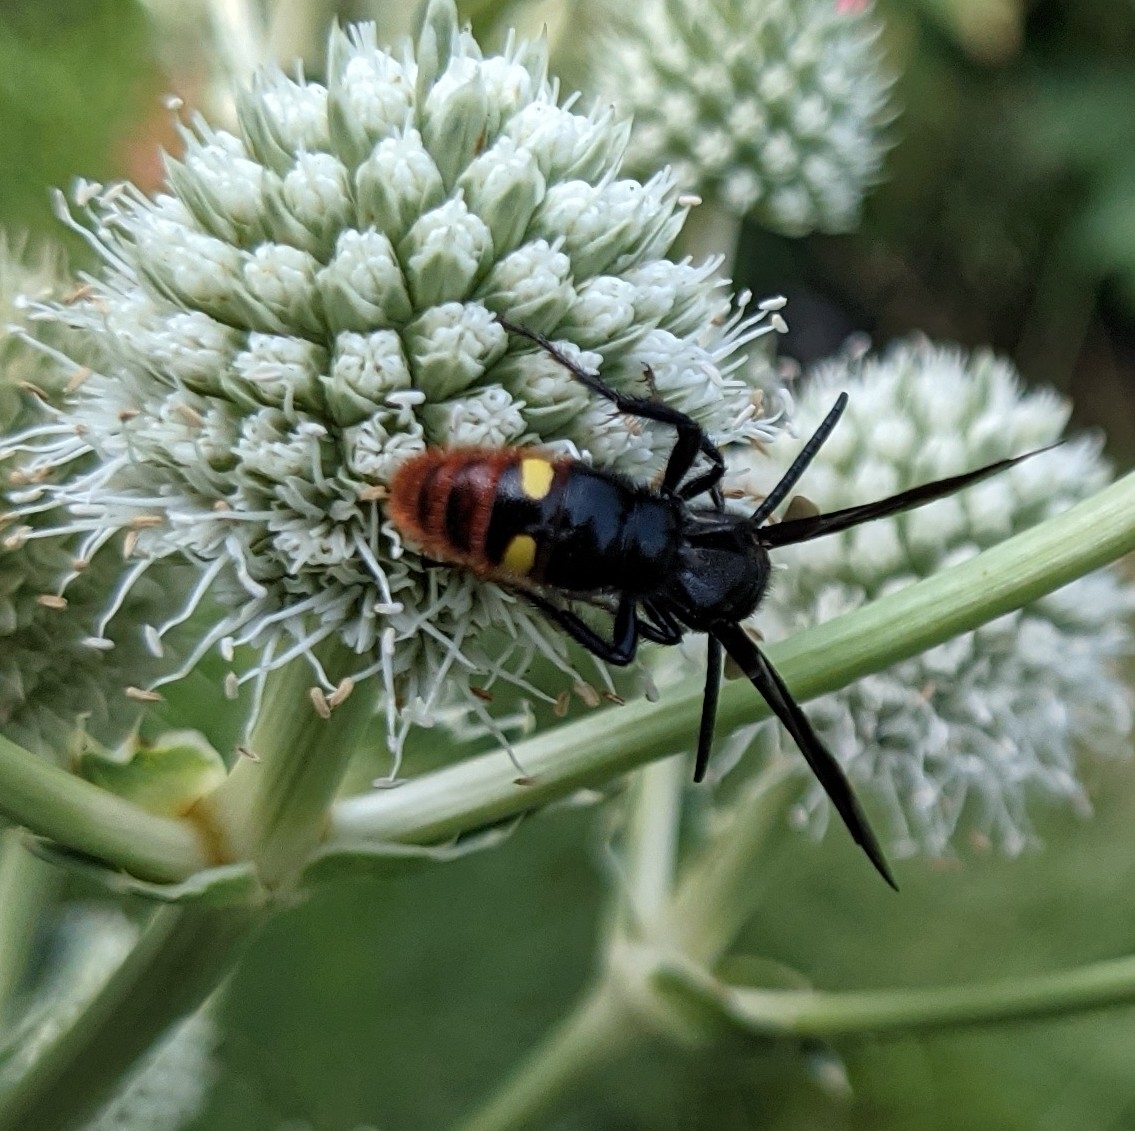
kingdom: Animalia
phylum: Arthropoda
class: Insecta
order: Hymenoptera
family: Scoliidae
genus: Scolia
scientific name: Scolia dubia
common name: Blue-winged scoliid wasp
